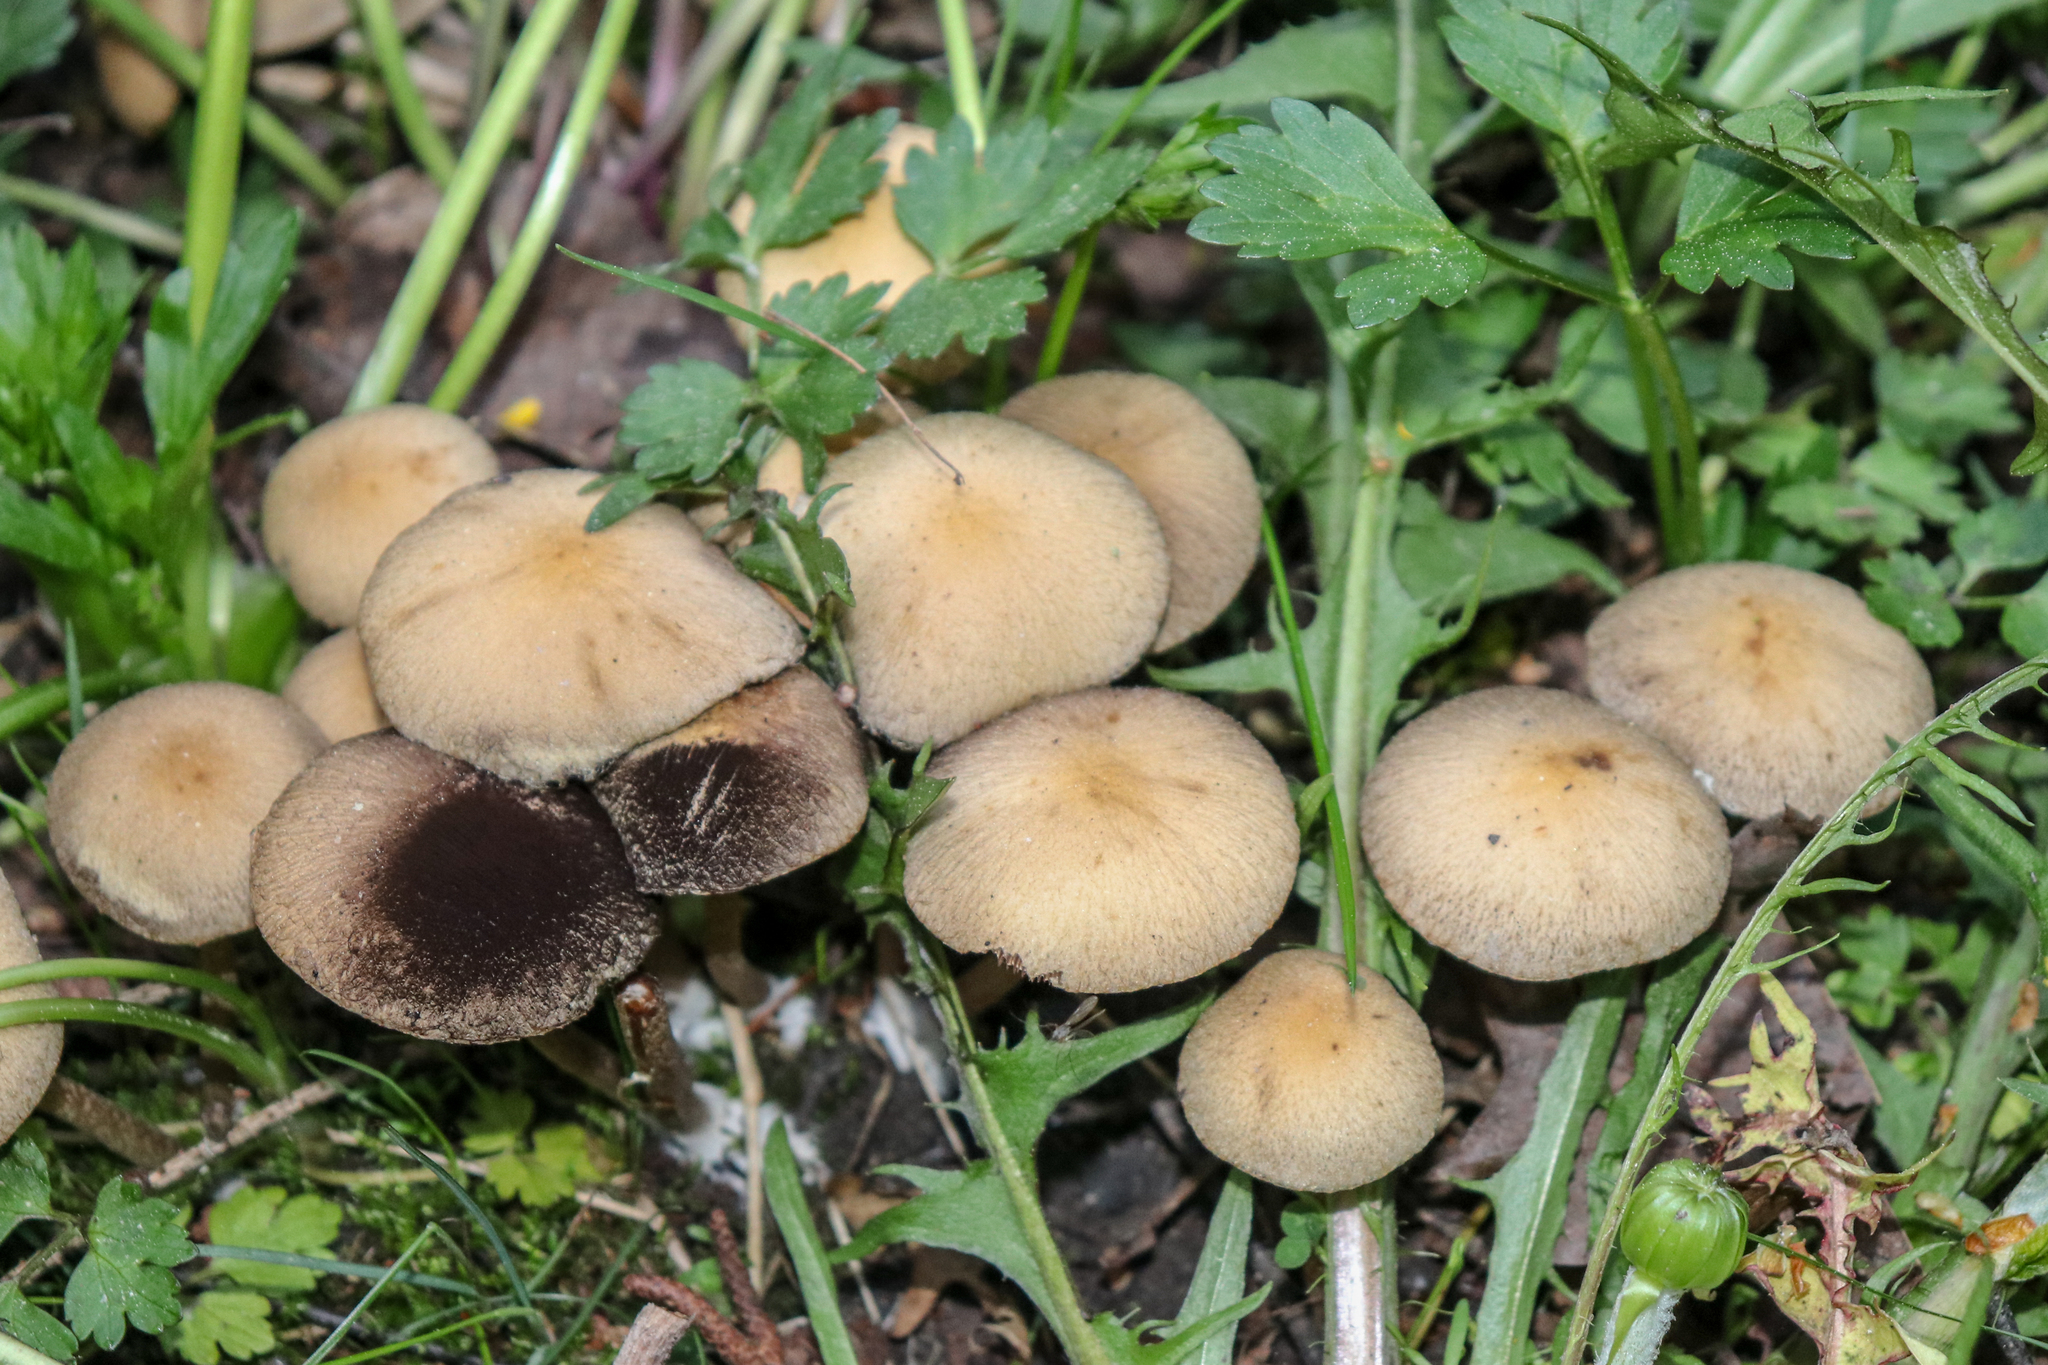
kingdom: Fungi
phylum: Basidiomycota
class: Agaricomycetes
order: Agaricales
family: Psathyrellaceae
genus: Lacrymaria
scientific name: Lacrymaria lacrymabunda
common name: Weeping widow
